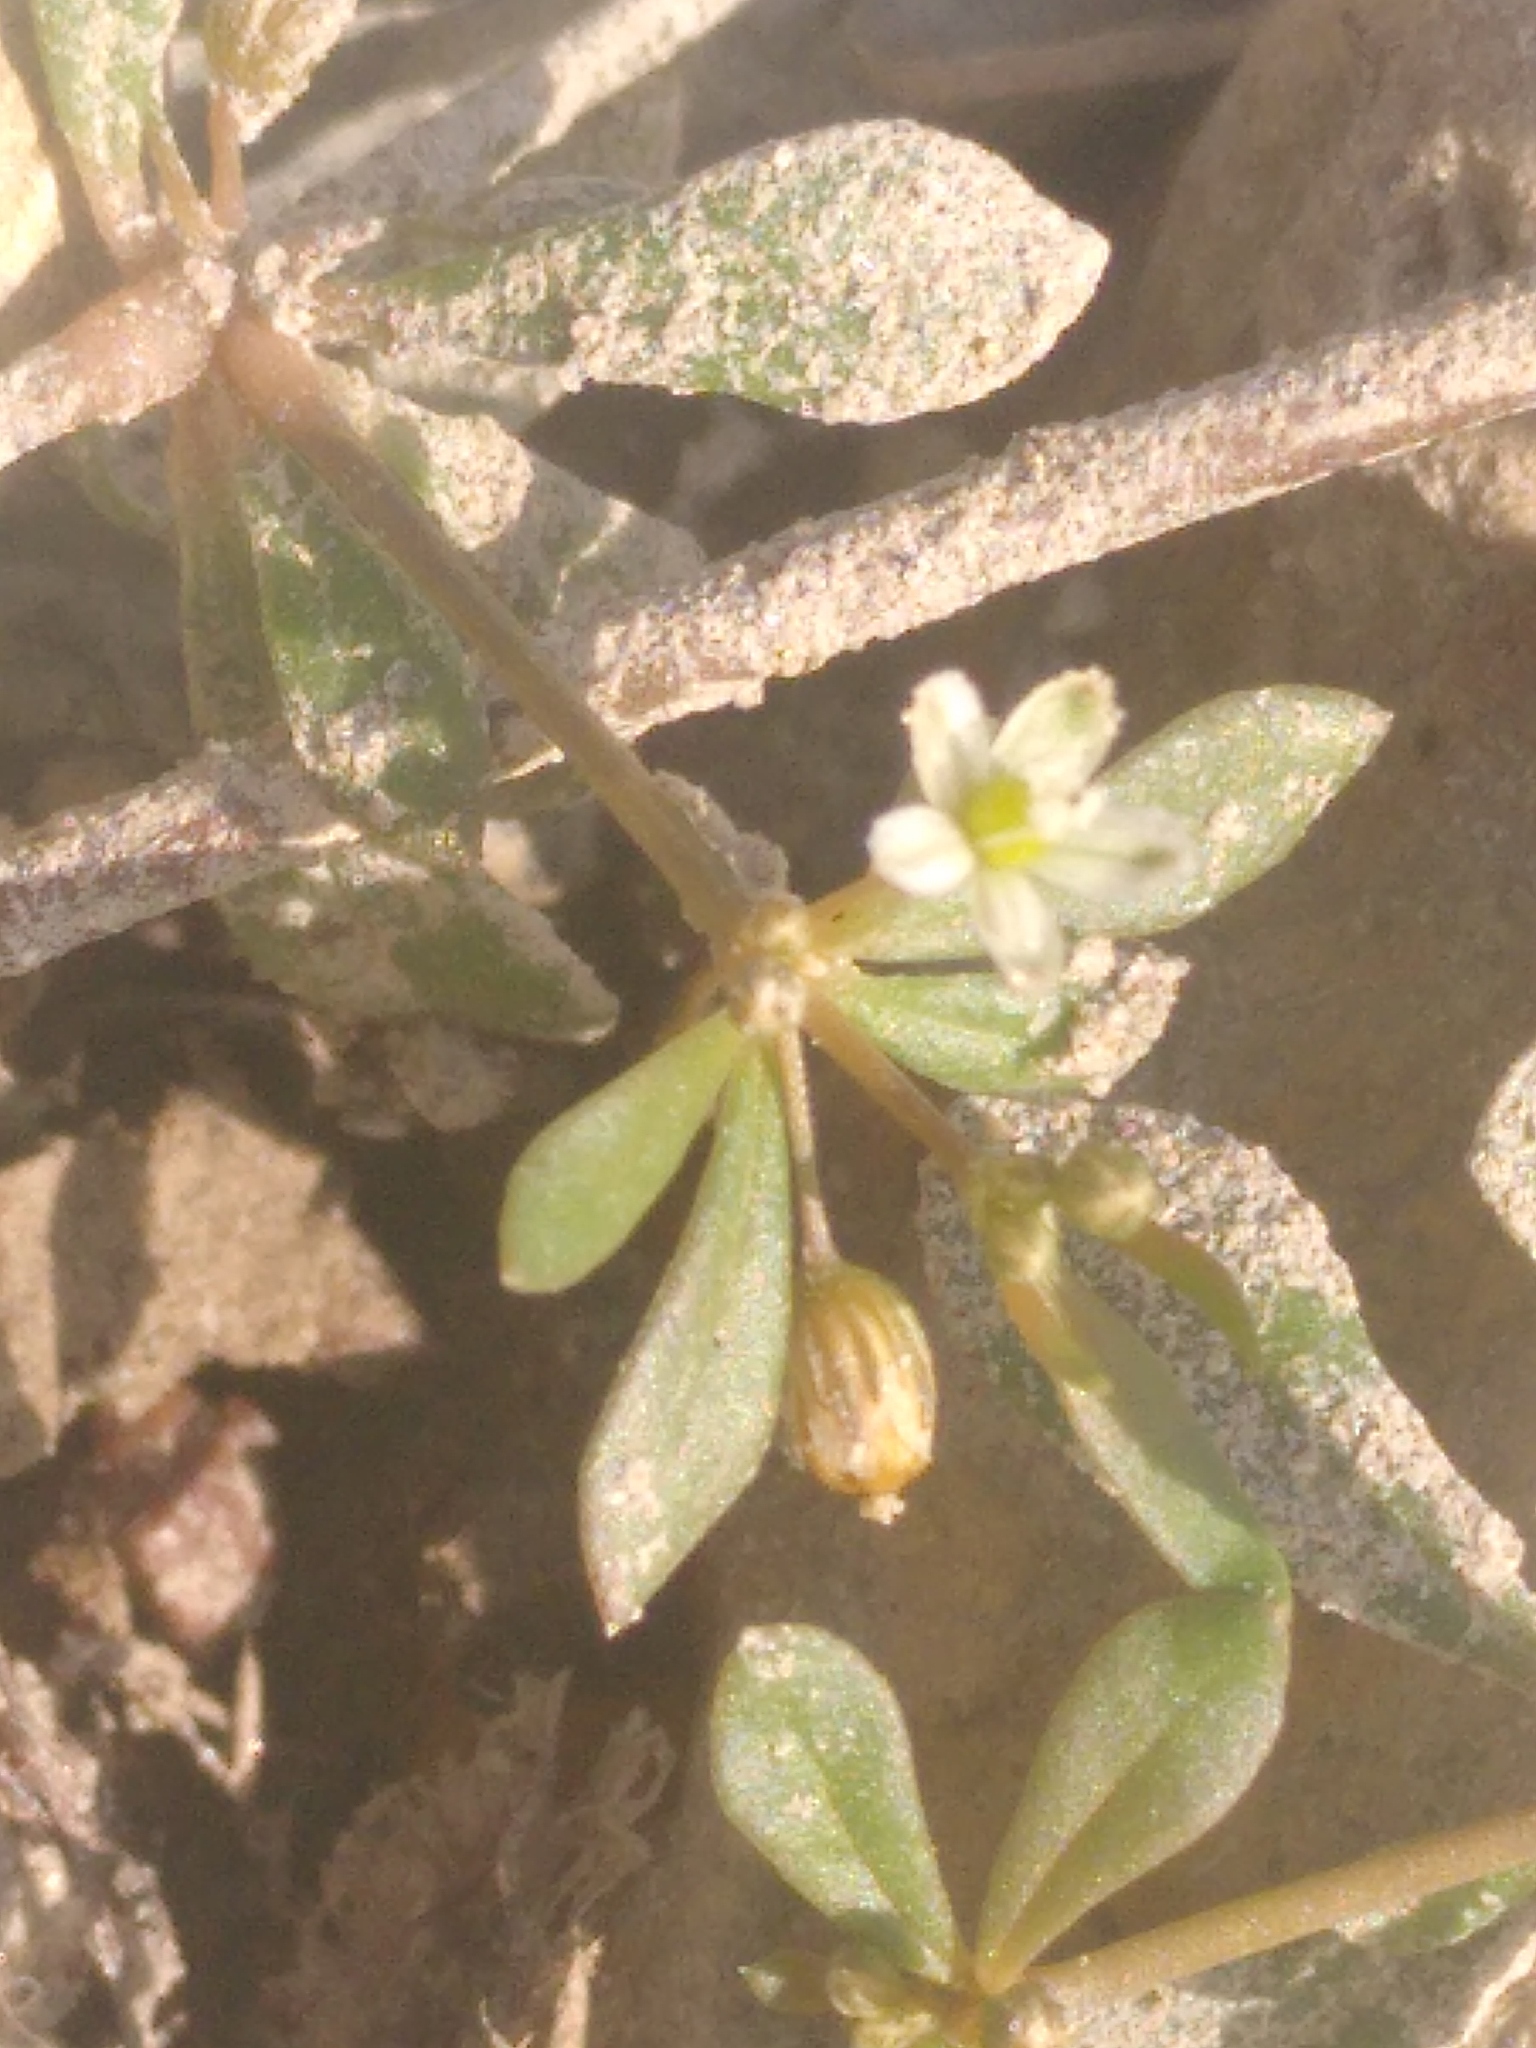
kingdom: Plantae
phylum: Tracheophyta
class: Magnoliopsida
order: Caryophyllales
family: Molluginaceae
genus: Mollugo
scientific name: Mollugo verticillata
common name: Green carpetweed
